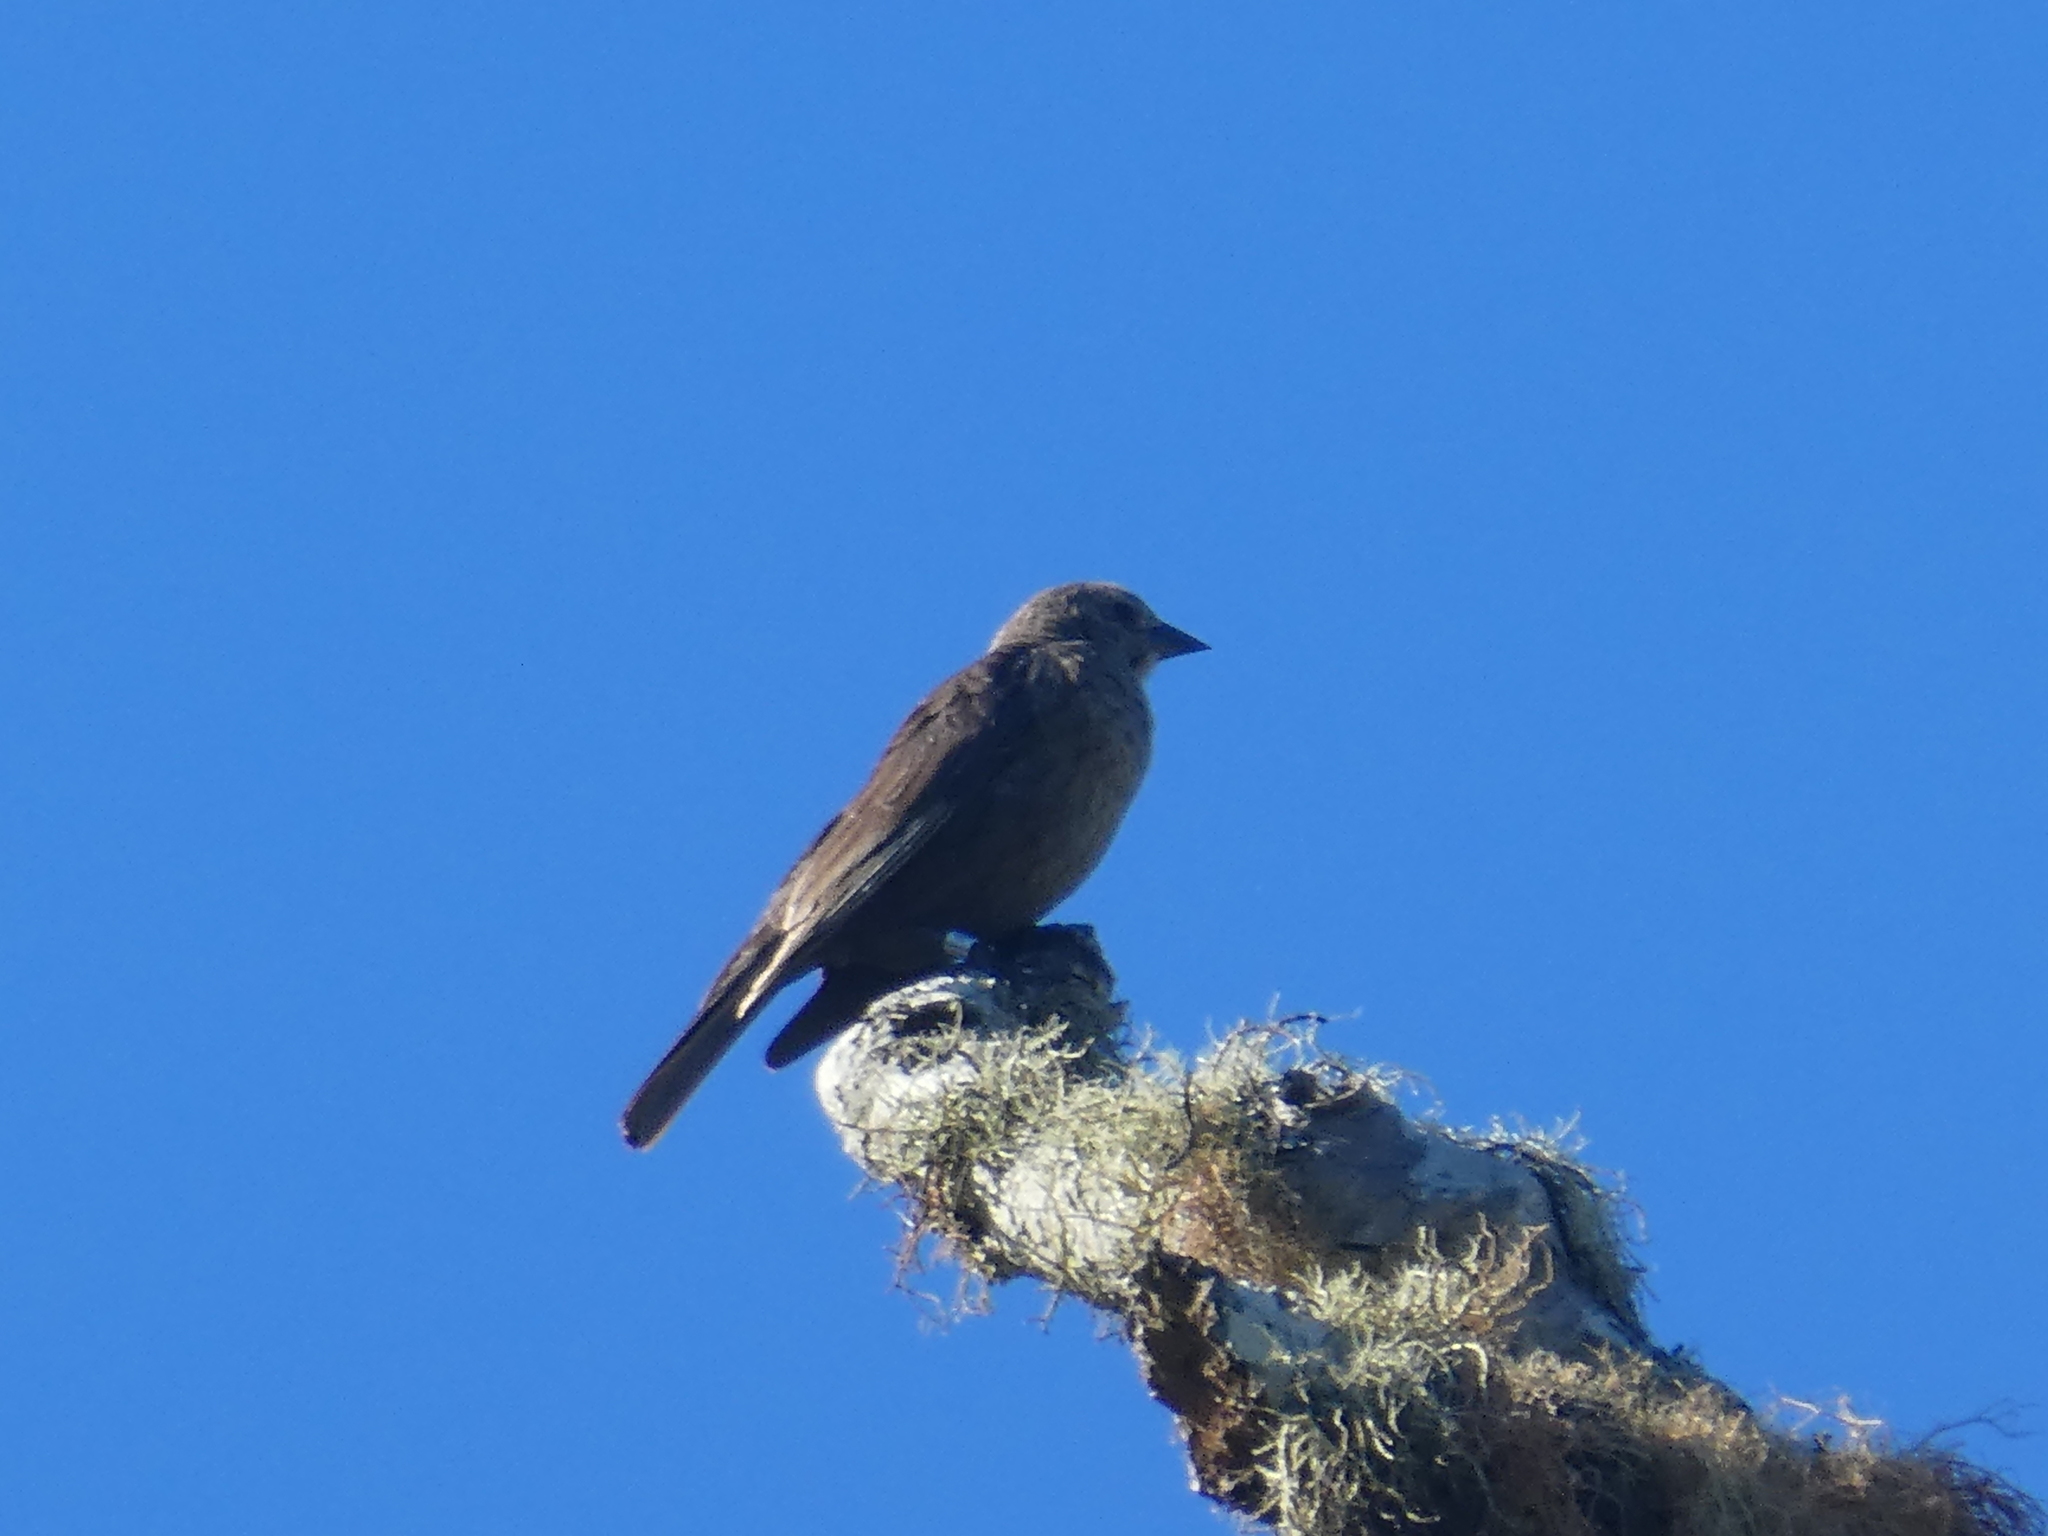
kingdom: Animalia
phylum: Chordata
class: Aves
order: Passeriformes
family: Icteridae
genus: Molothrus
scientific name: Molothrus ater
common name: Brown-headed cowbird
